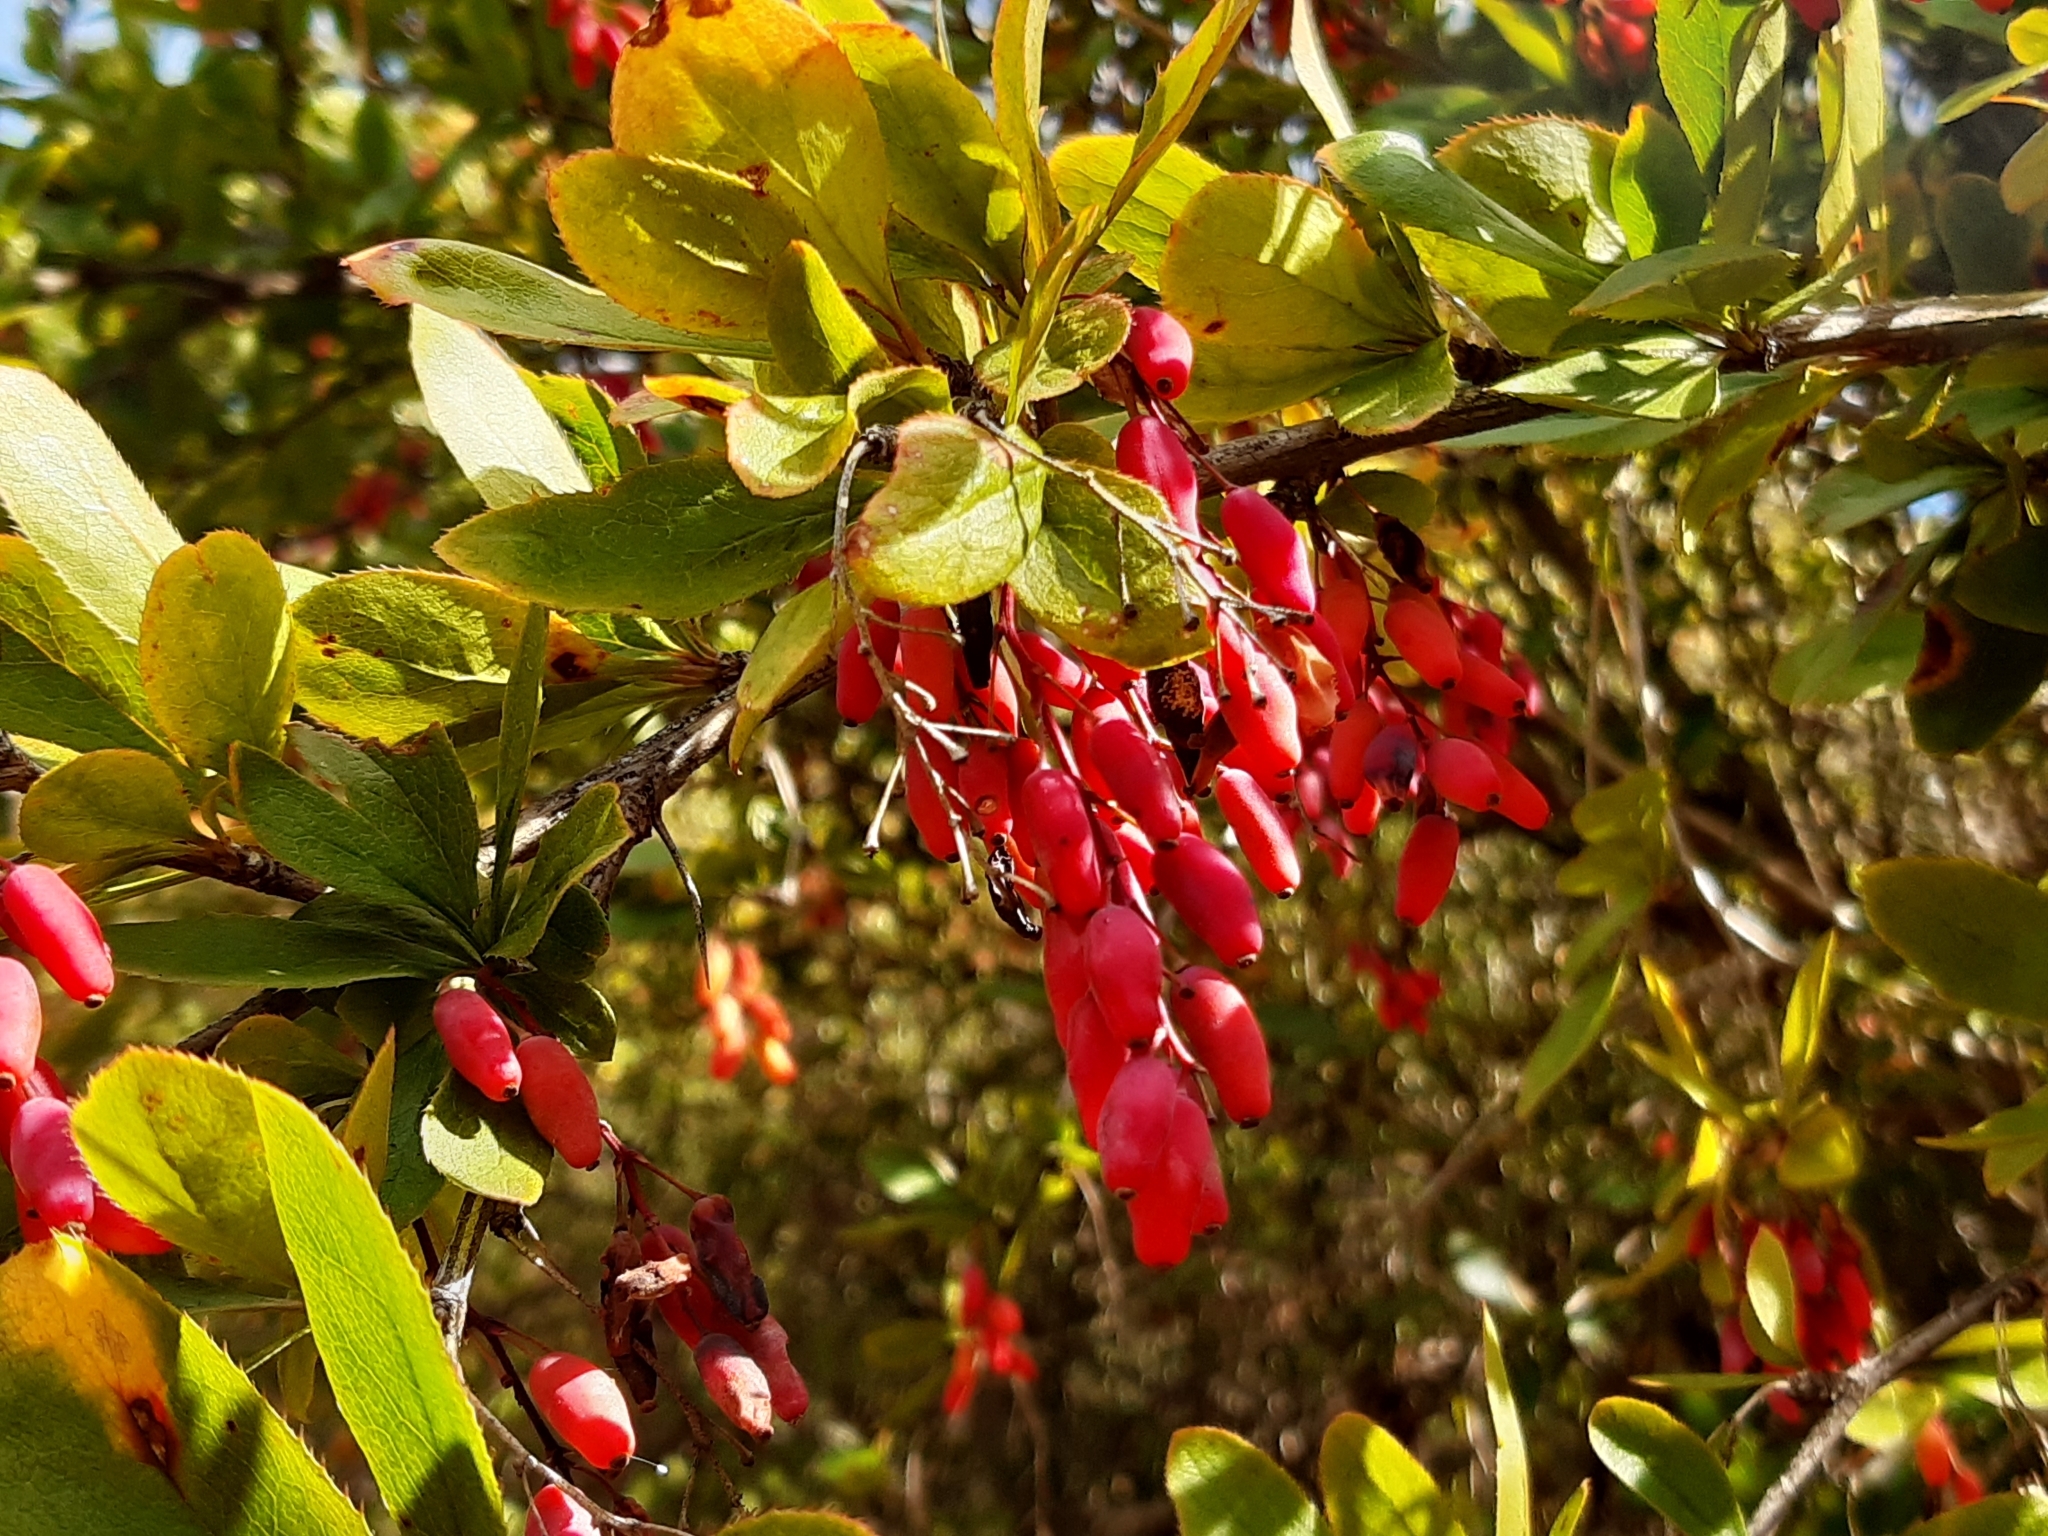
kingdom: Plantae
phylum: Tracheophyta
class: Magnoliopsida
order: Ranunculales
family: Berberidaceae
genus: Berberis
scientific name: Berberis vulgaris
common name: Barberry
